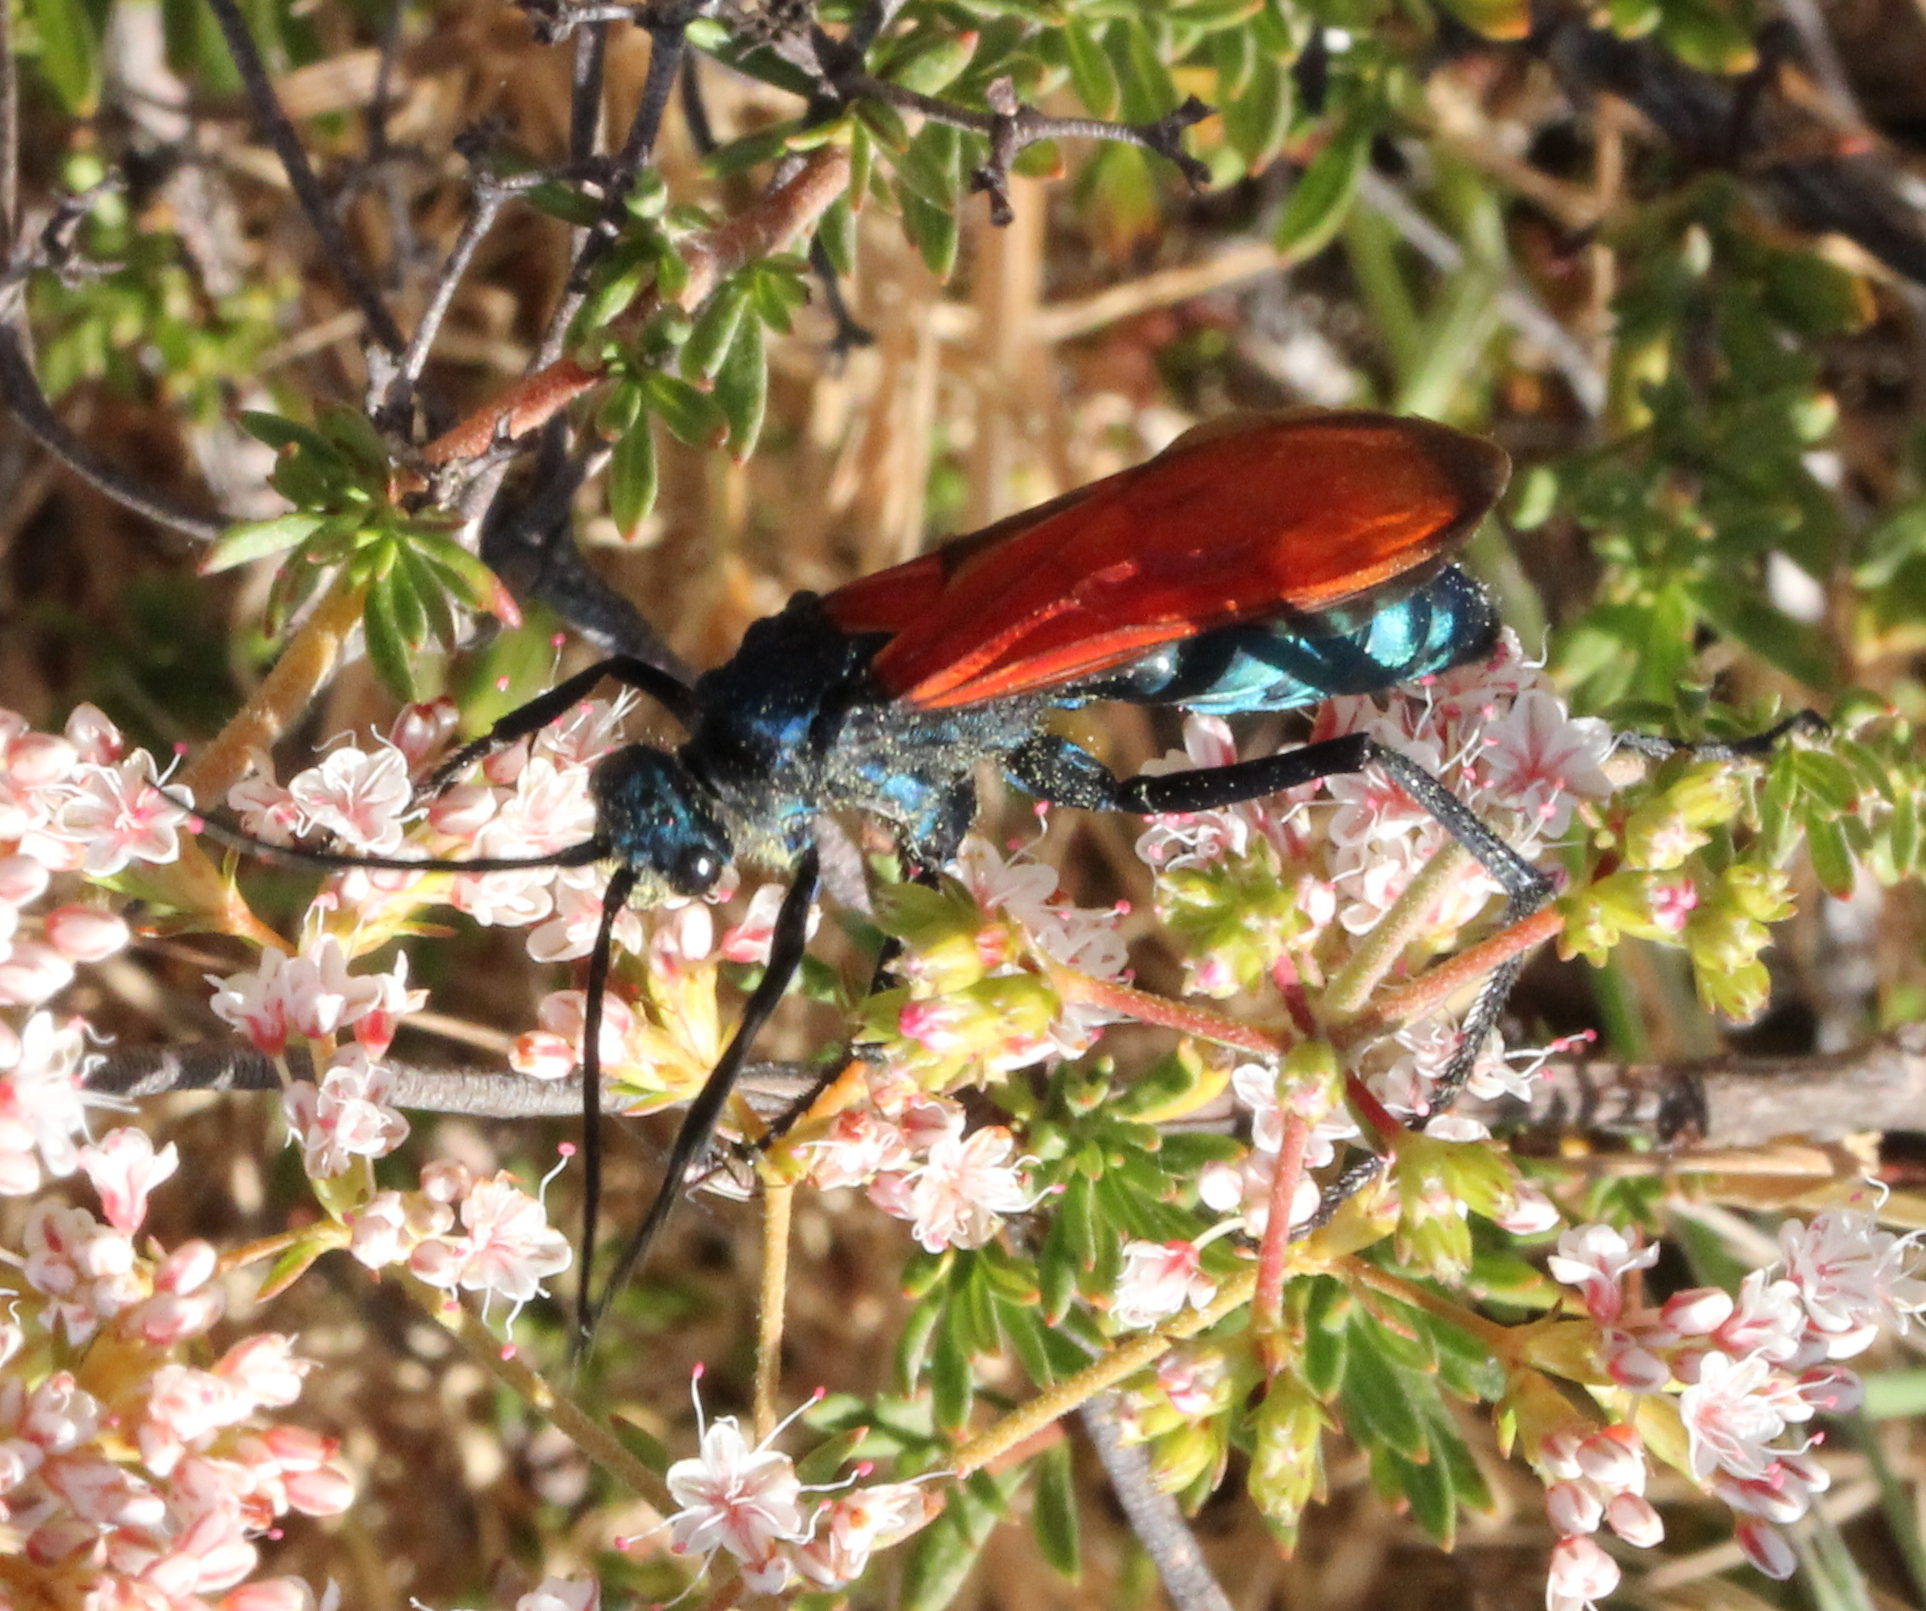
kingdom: Animalia
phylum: Arthropoda
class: Insecta
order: Hymenoptera
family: Pompilidae
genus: Pepsis
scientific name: Pepsis thisbe
